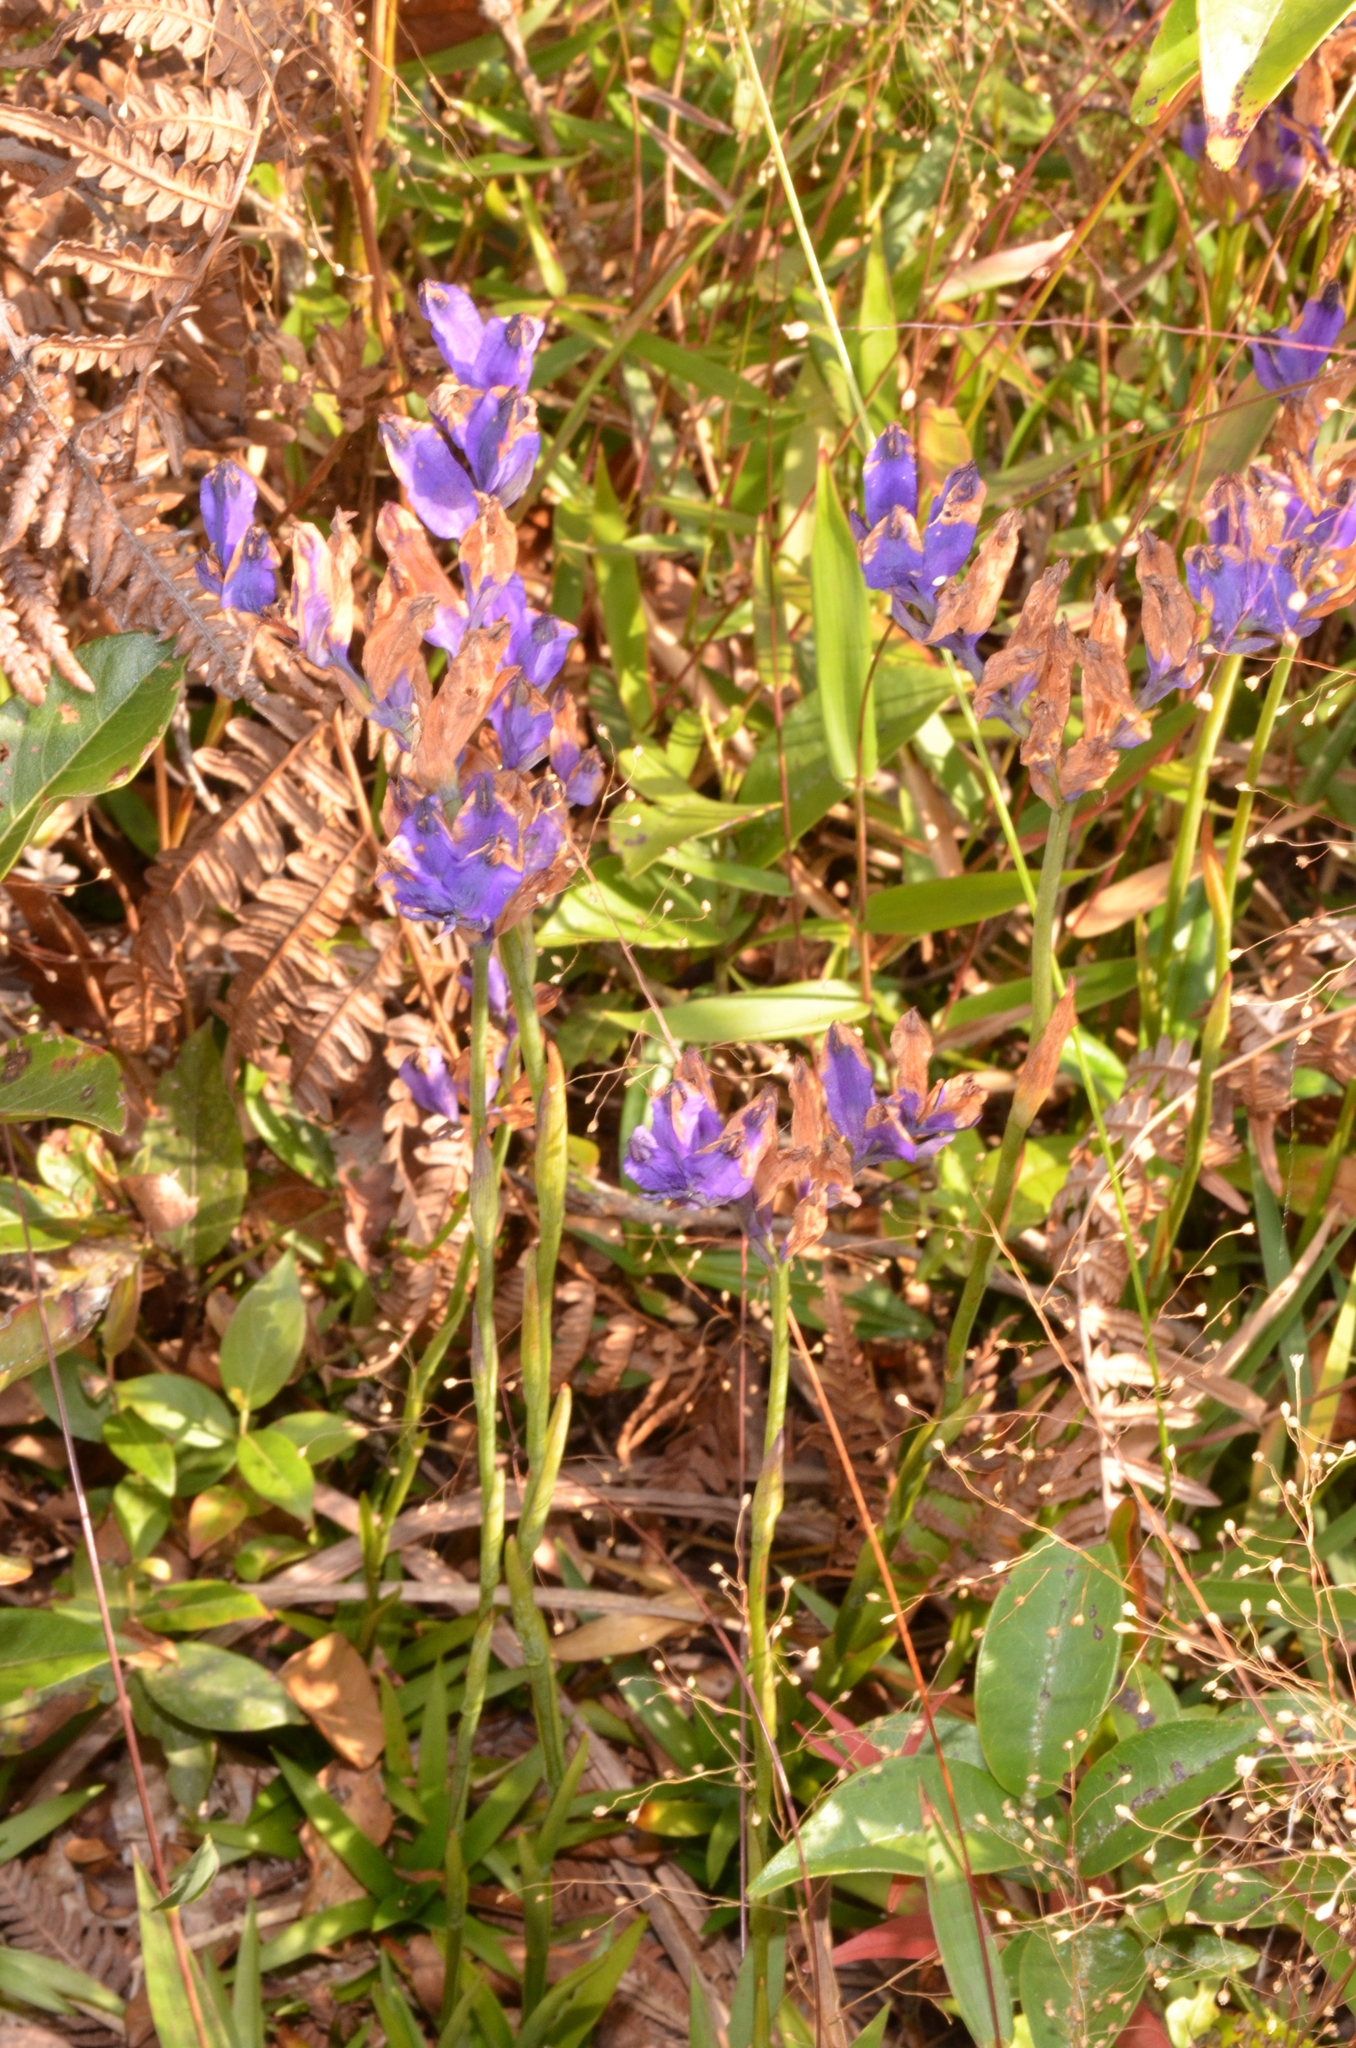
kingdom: Plantae
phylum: Tracheophyta
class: Liliopsida
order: Dioscoreales
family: Burmanniaceae
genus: Burmannia
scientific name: Burmannia disticha
